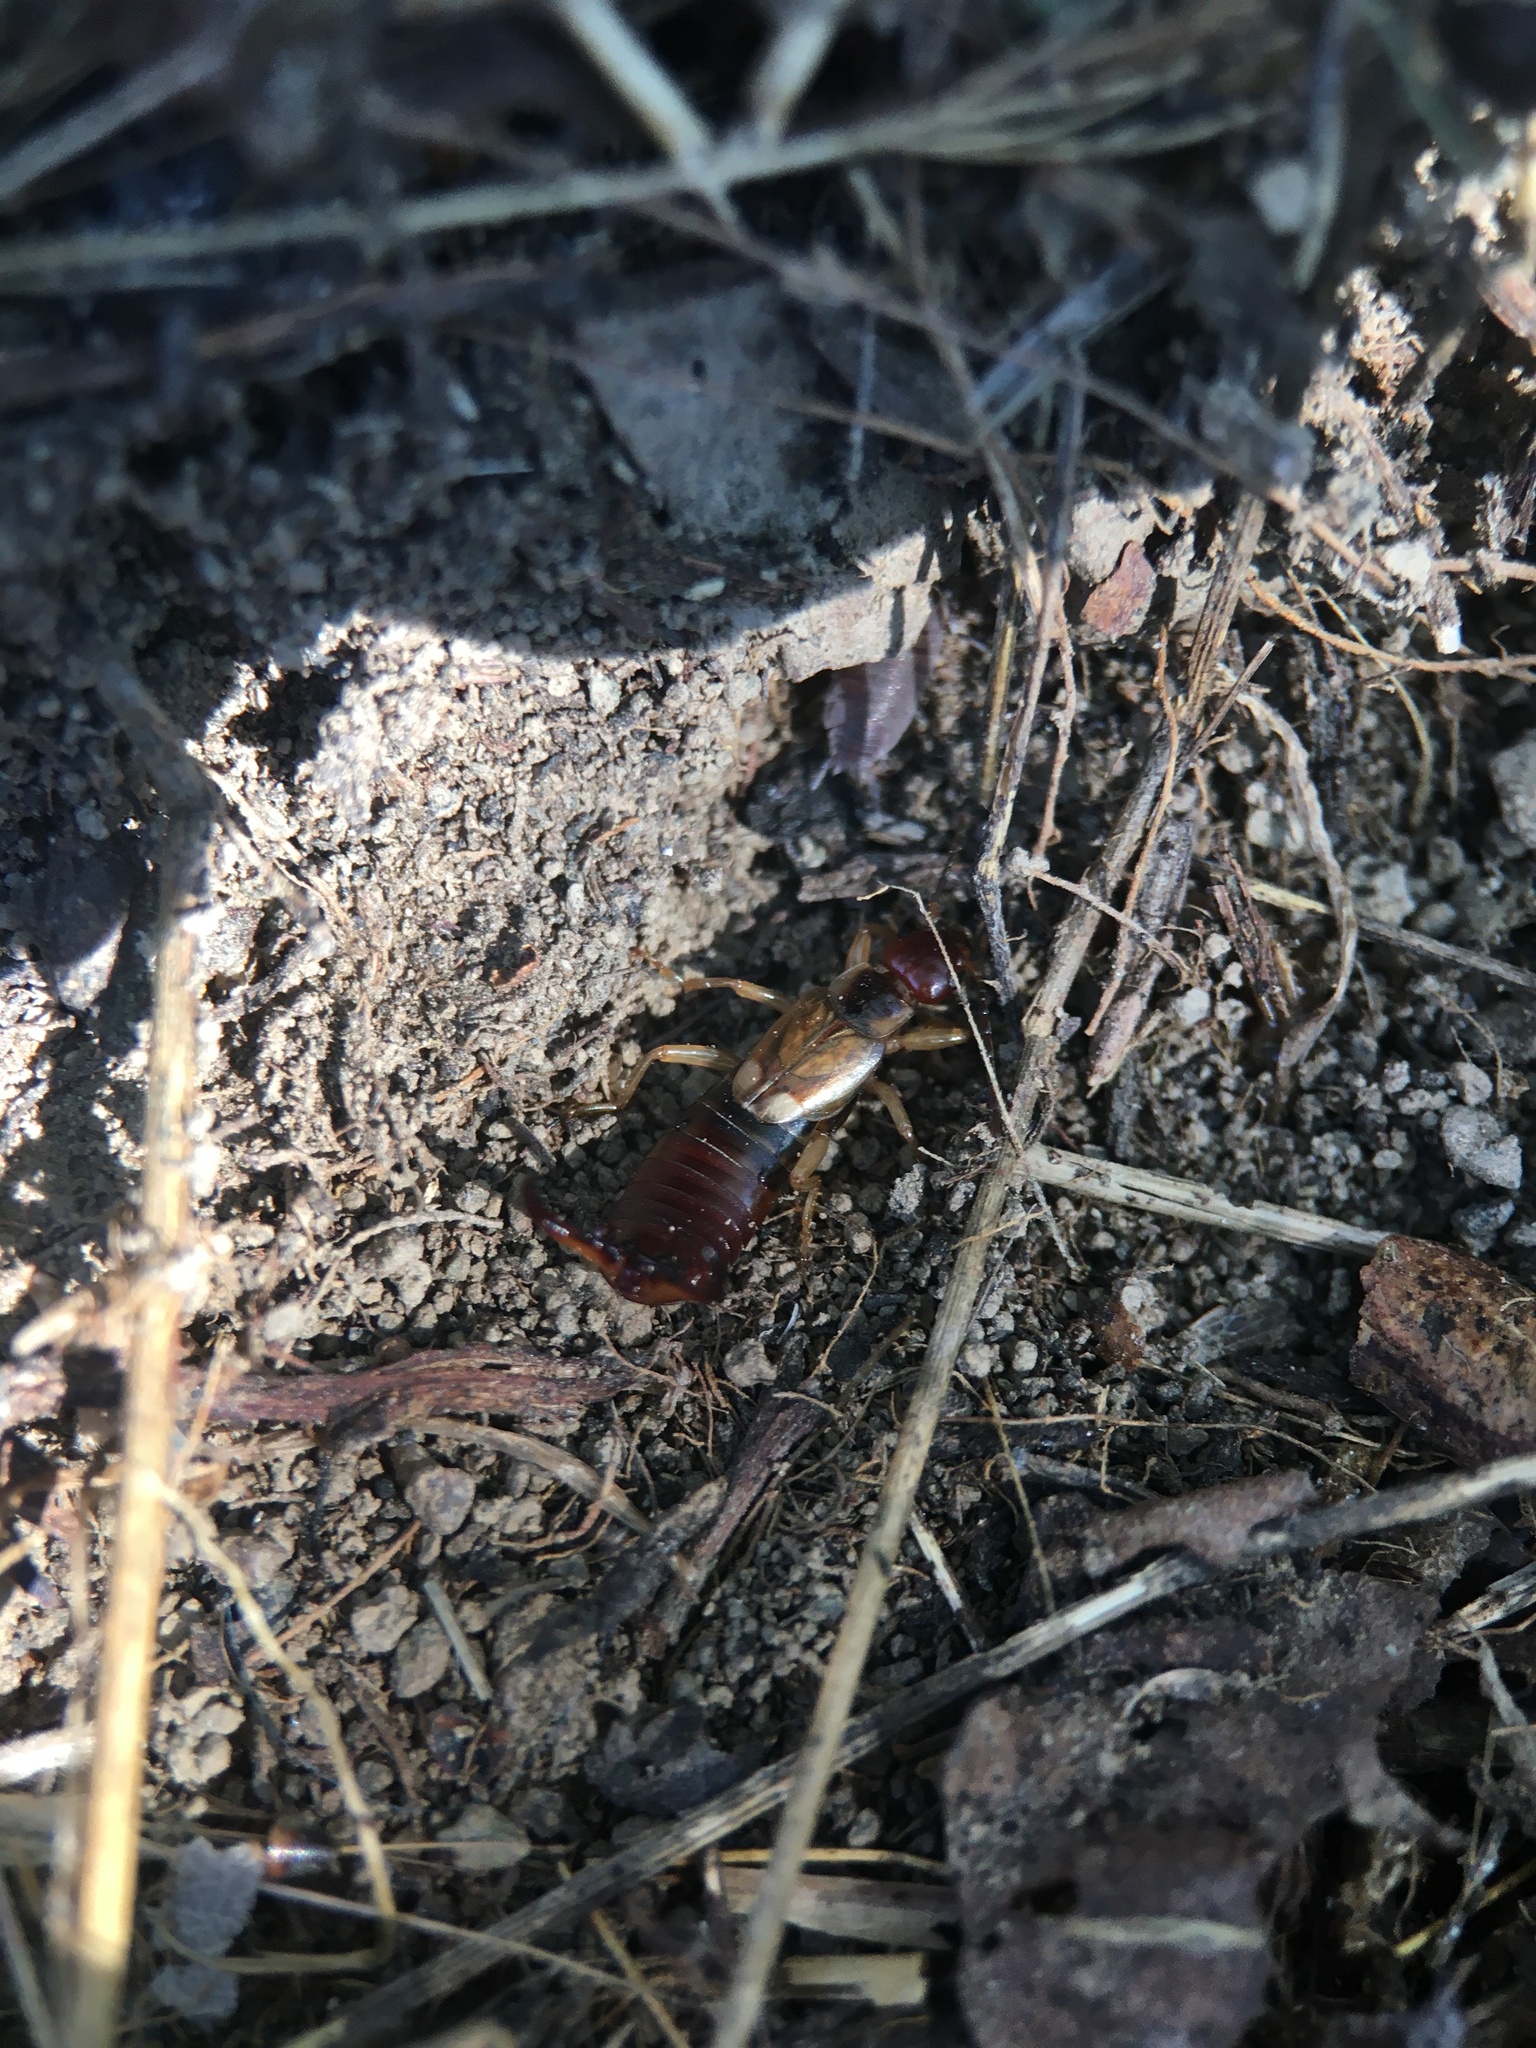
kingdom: Animalia
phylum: Arthropoda
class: Insecta
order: Dermaptera
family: Forficulidae
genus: Forficula
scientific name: Forficula dentata
